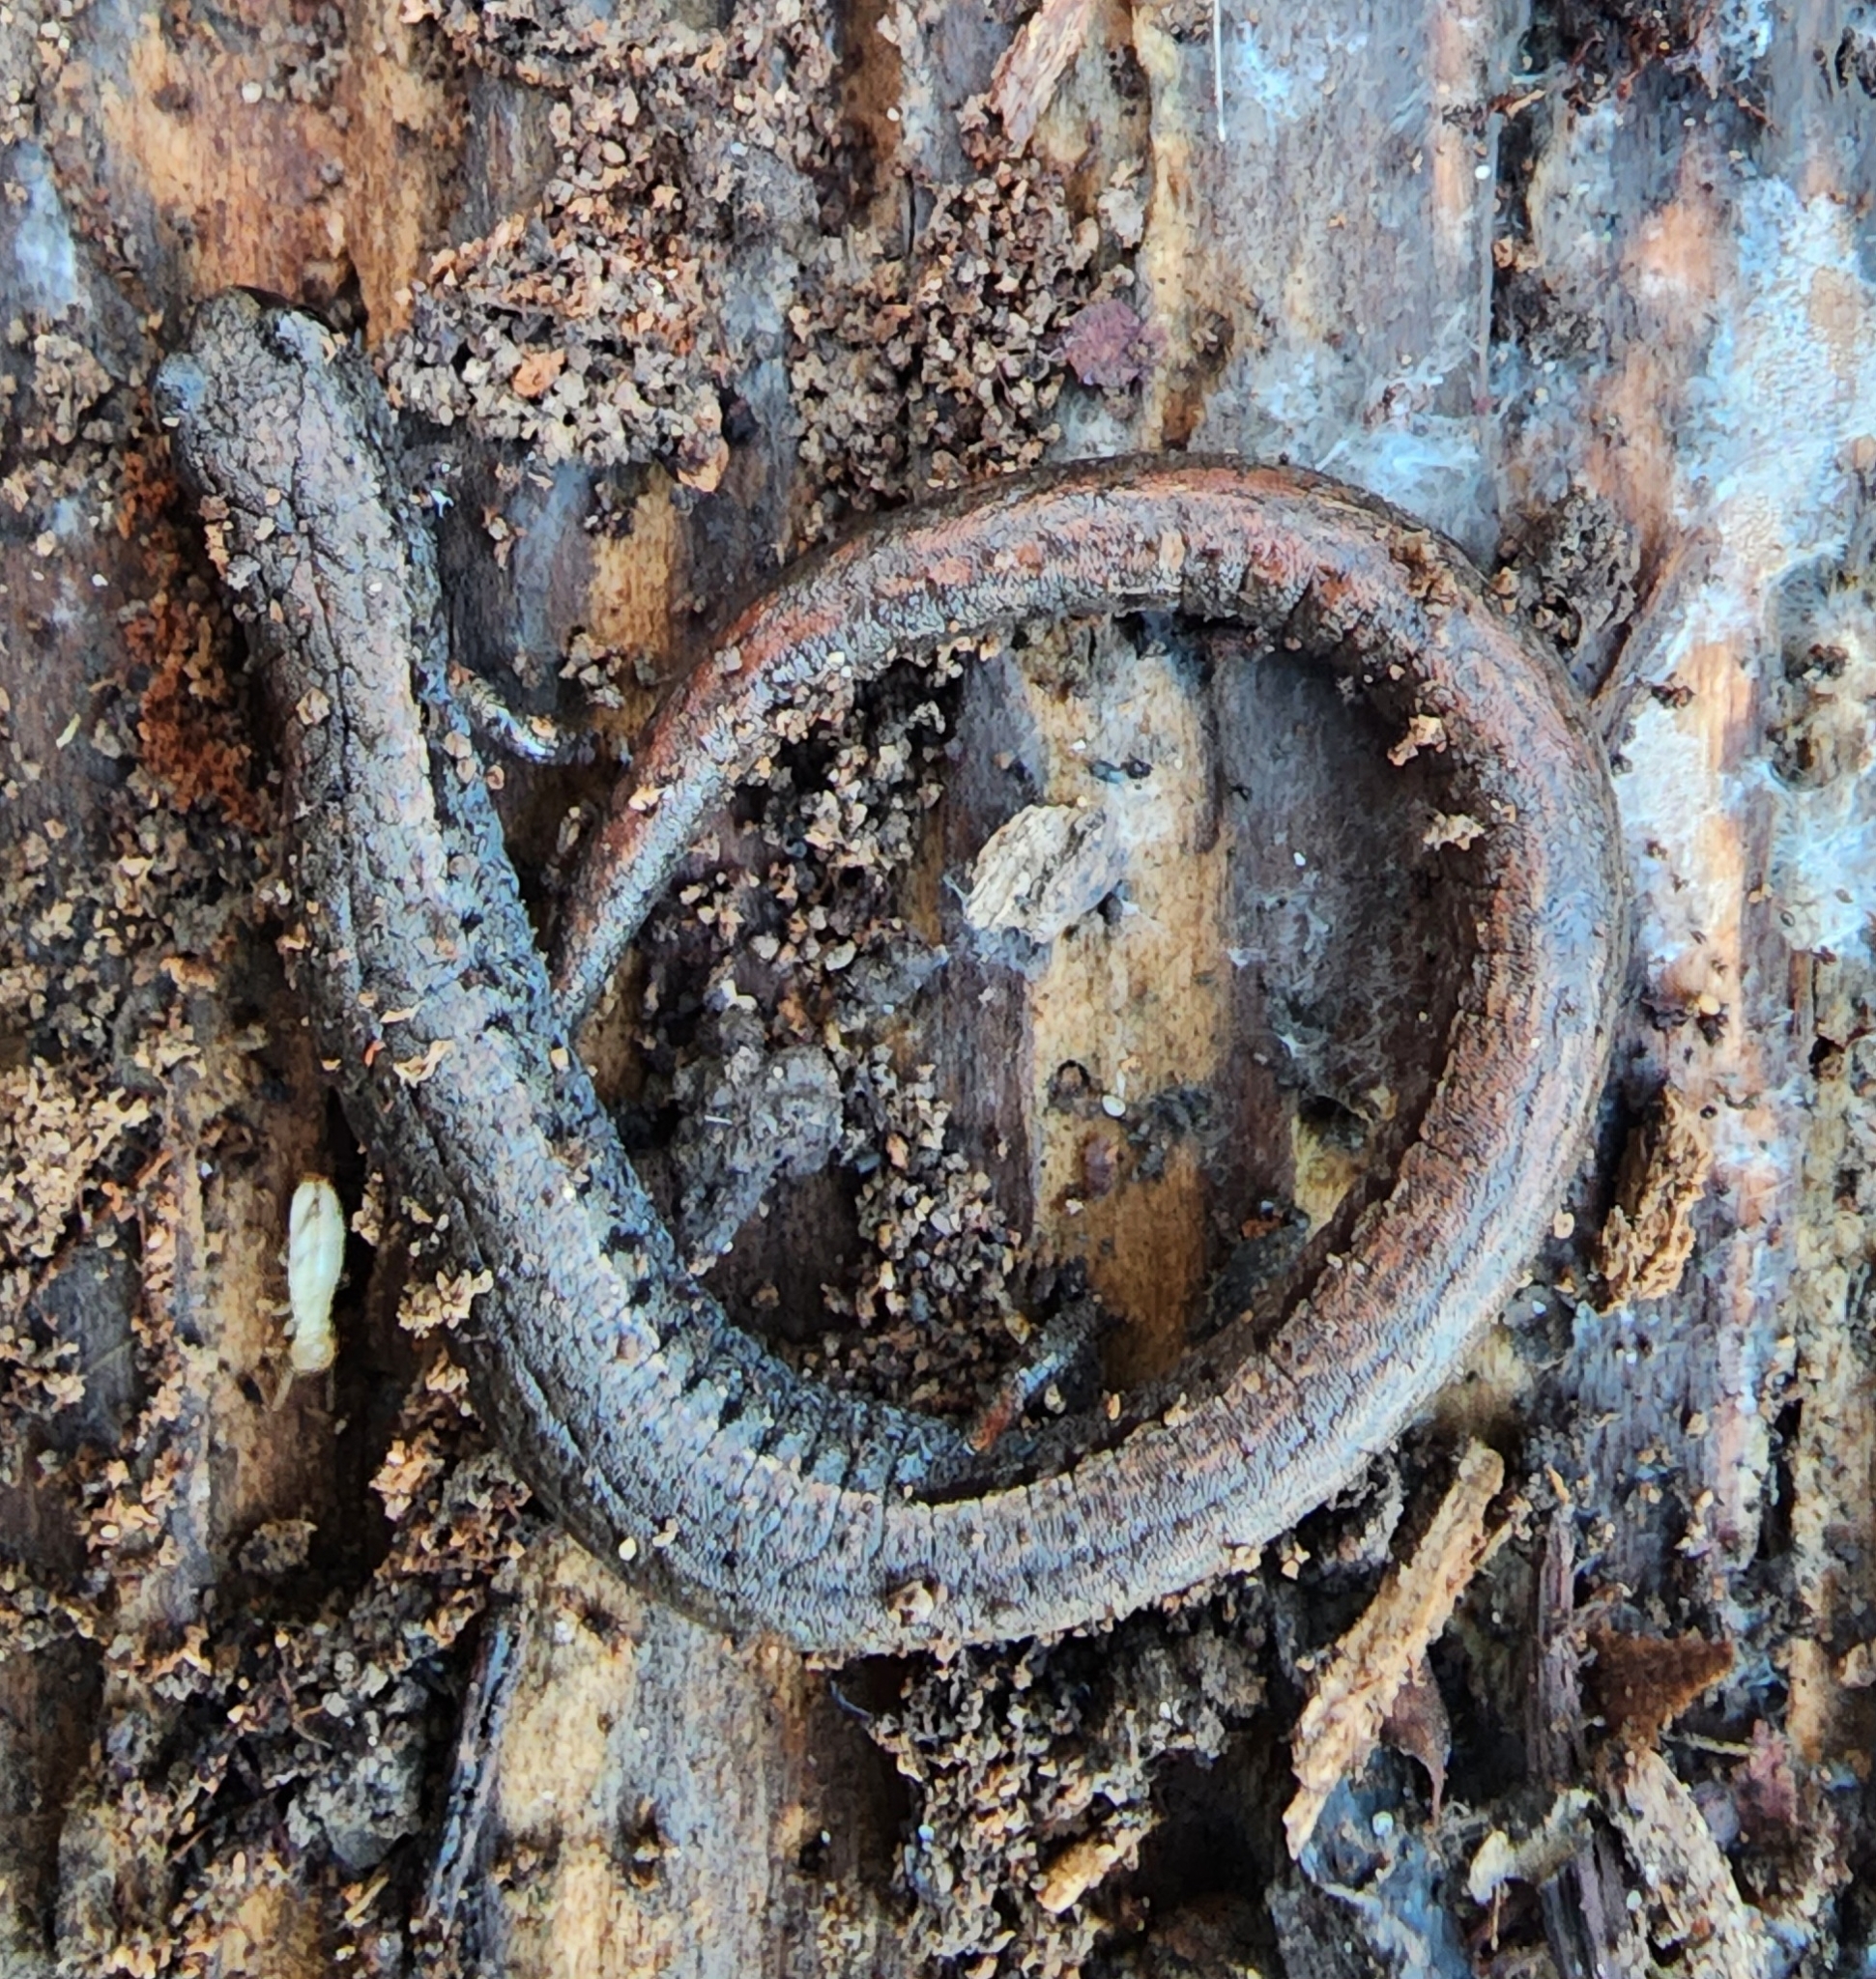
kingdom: Animalia
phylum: Chordata
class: Amphibia
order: Caudata
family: Plethodontidae
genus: Batrachoseps
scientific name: Batrachoseps attenuatus
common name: California slender salamander
